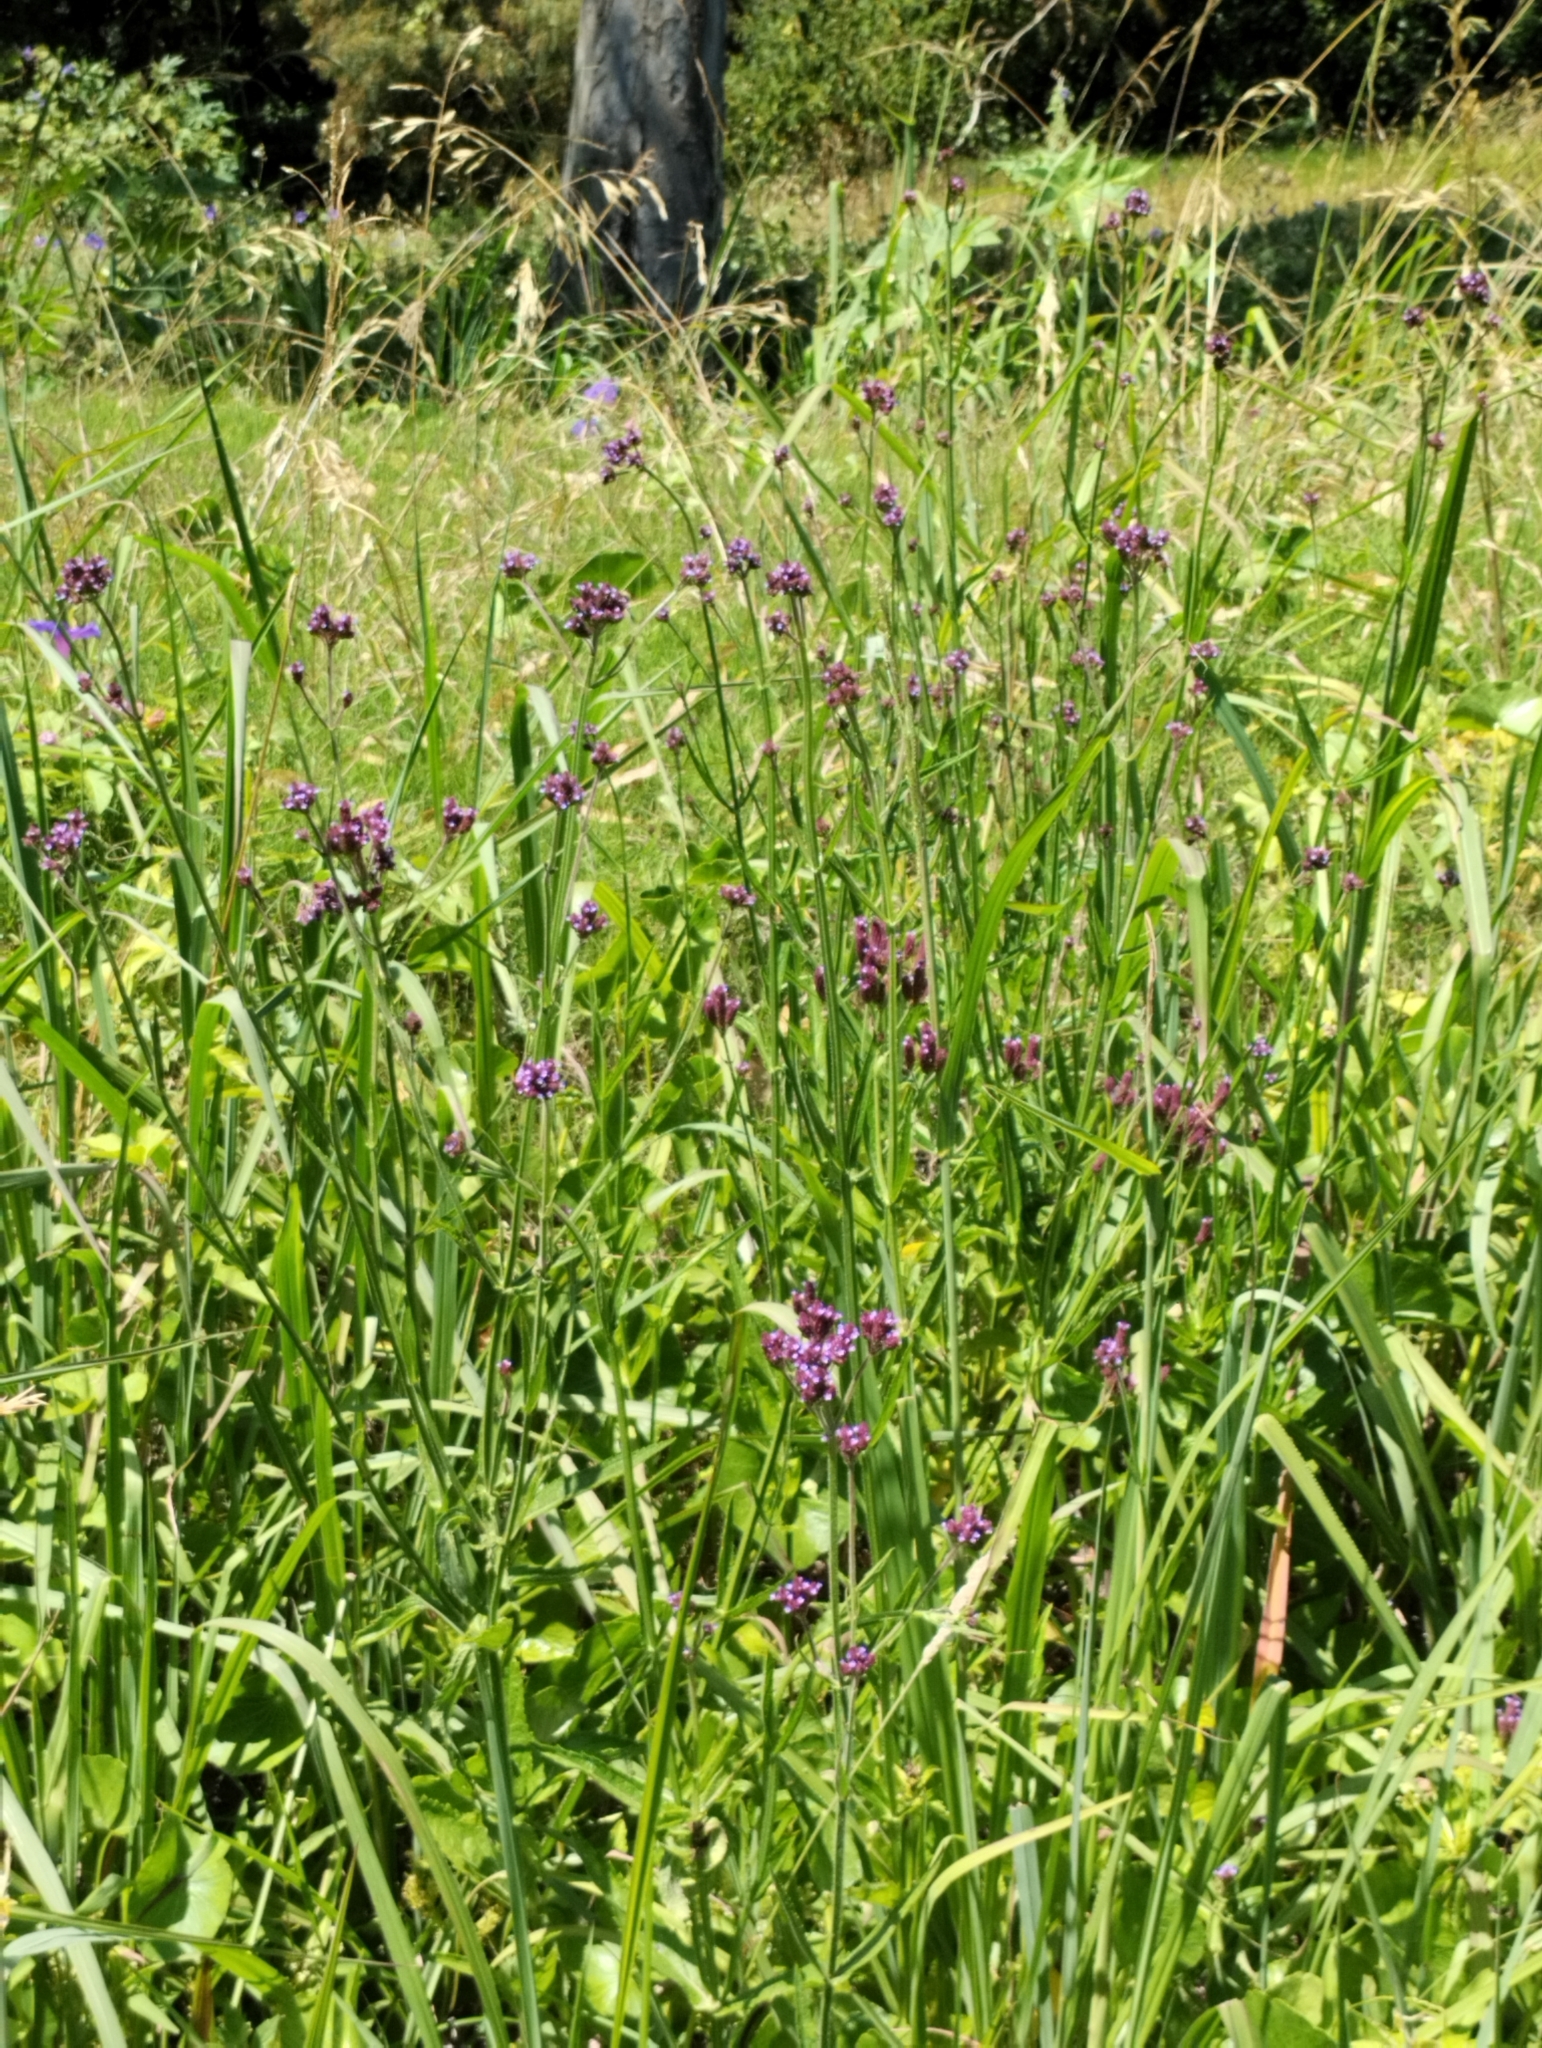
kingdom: Plantae
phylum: Tracheophyta
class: Magnoliopsida
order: Lamiales
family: Verbenaceae
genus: Verbena
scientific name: Verbena bonariensis
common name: Purpletop vervain
